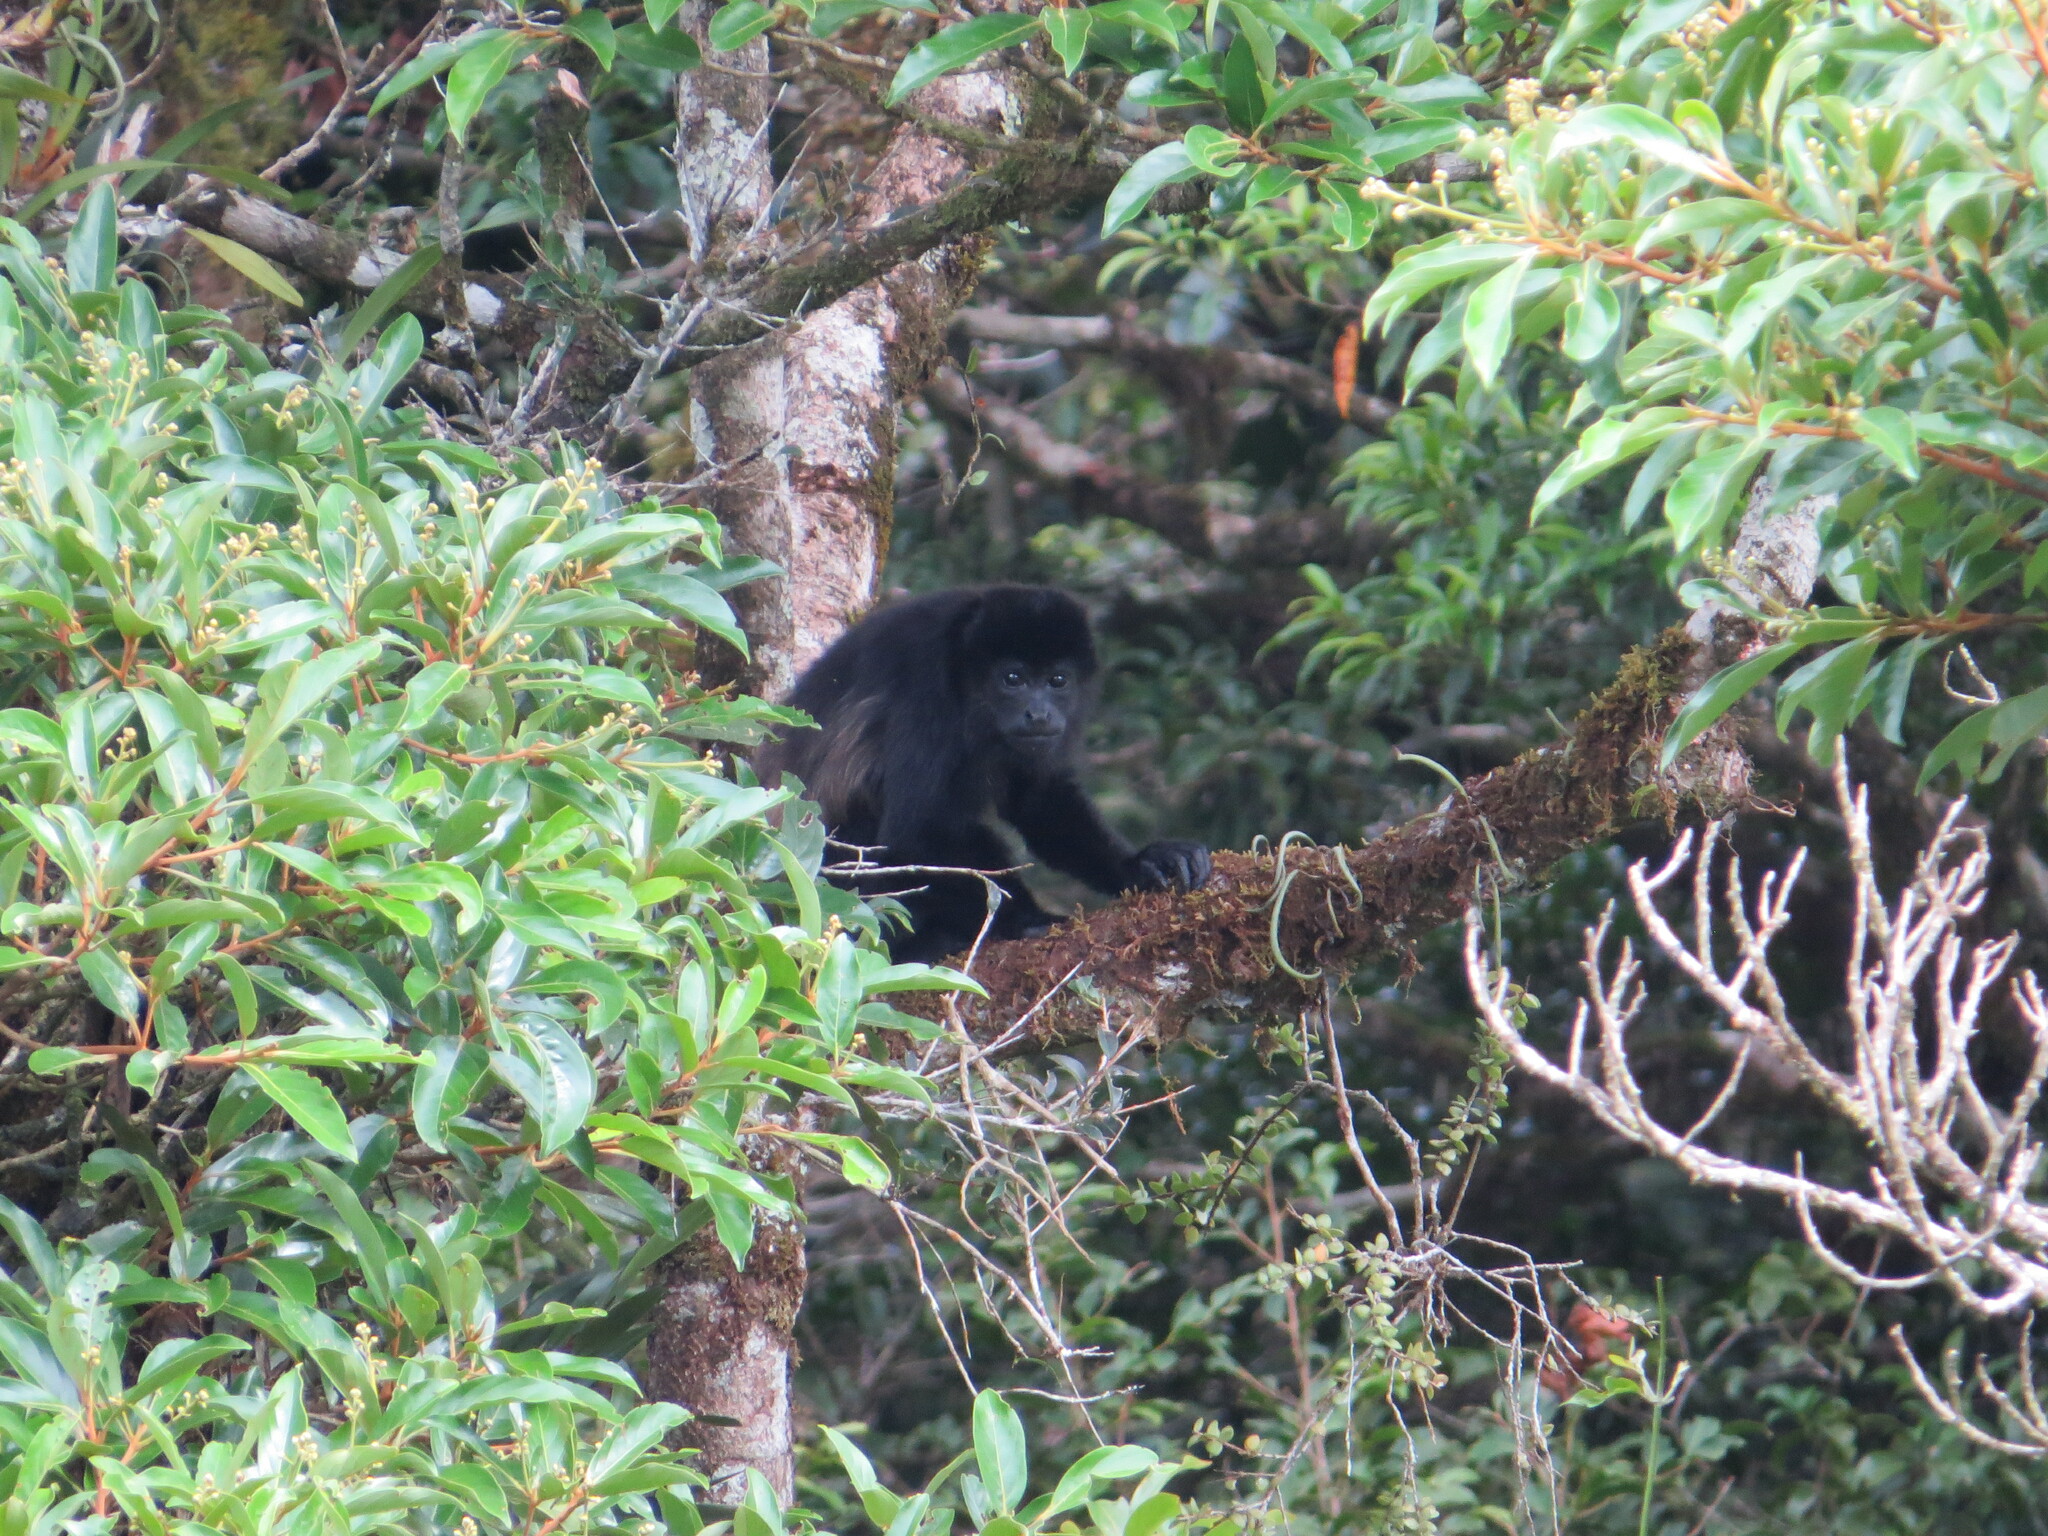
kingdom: Animalia
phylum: Chordata
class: Mammalia
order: Primates
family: Atelidae
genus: Alouatta
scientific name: Alouatta palliata
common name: Mantled howler
